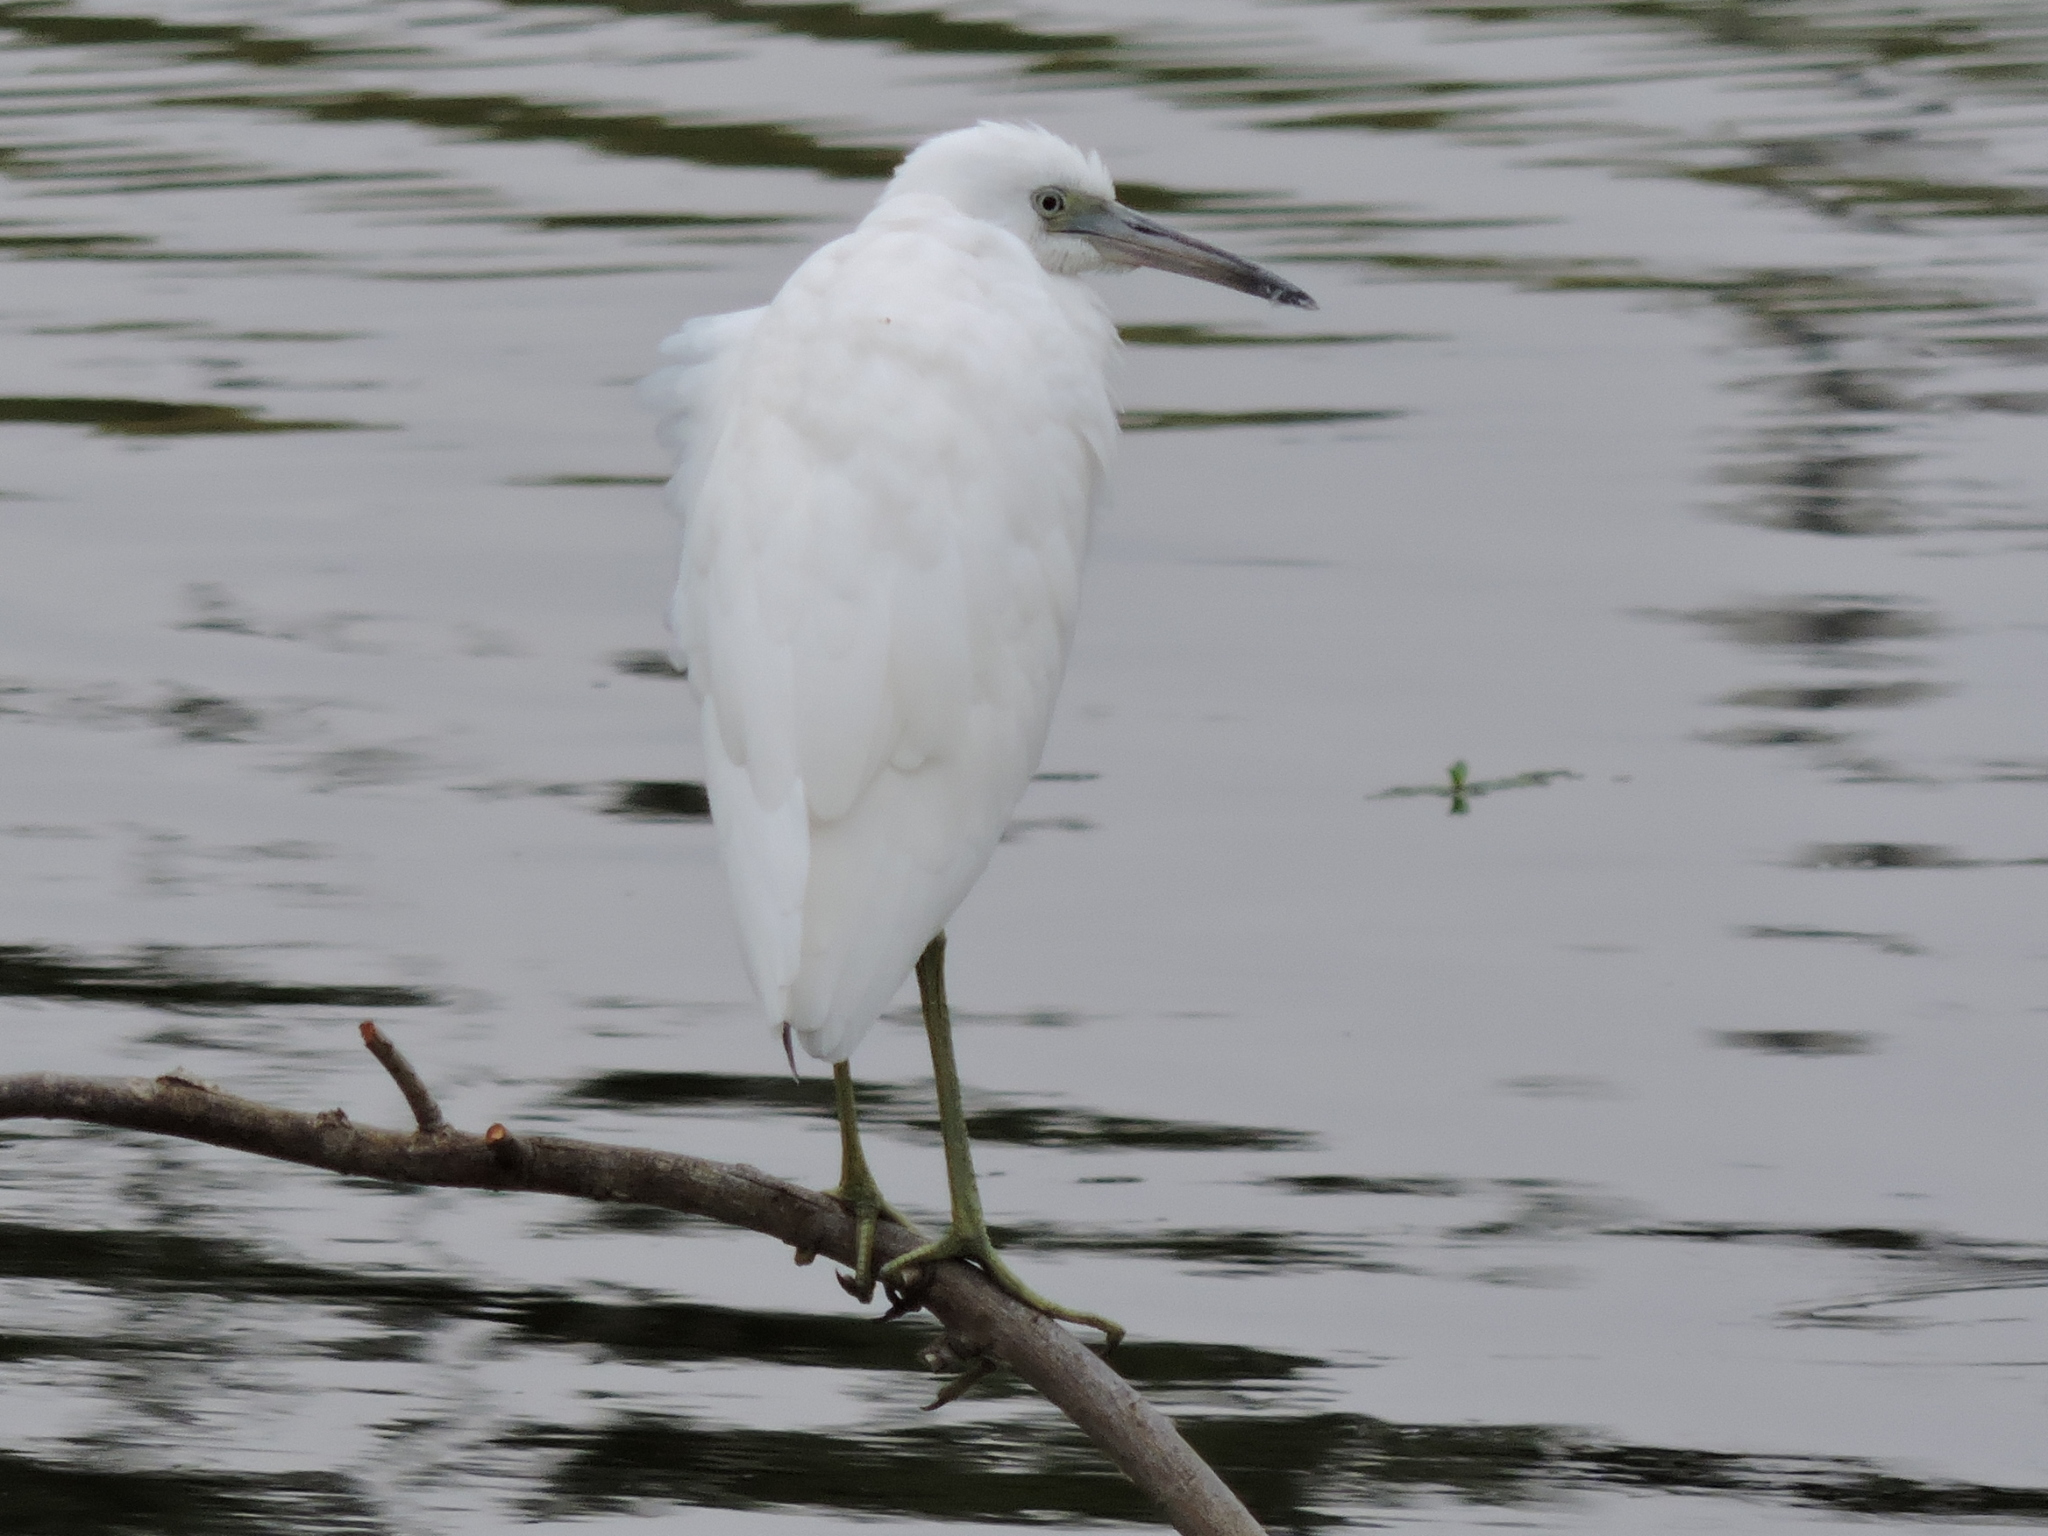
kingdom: Animalia
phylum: Chordata
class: Aves
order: Pelecaniformes
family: Ardeidae
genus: Egretta
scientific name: Egretta caerulea
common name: Little blue heron
